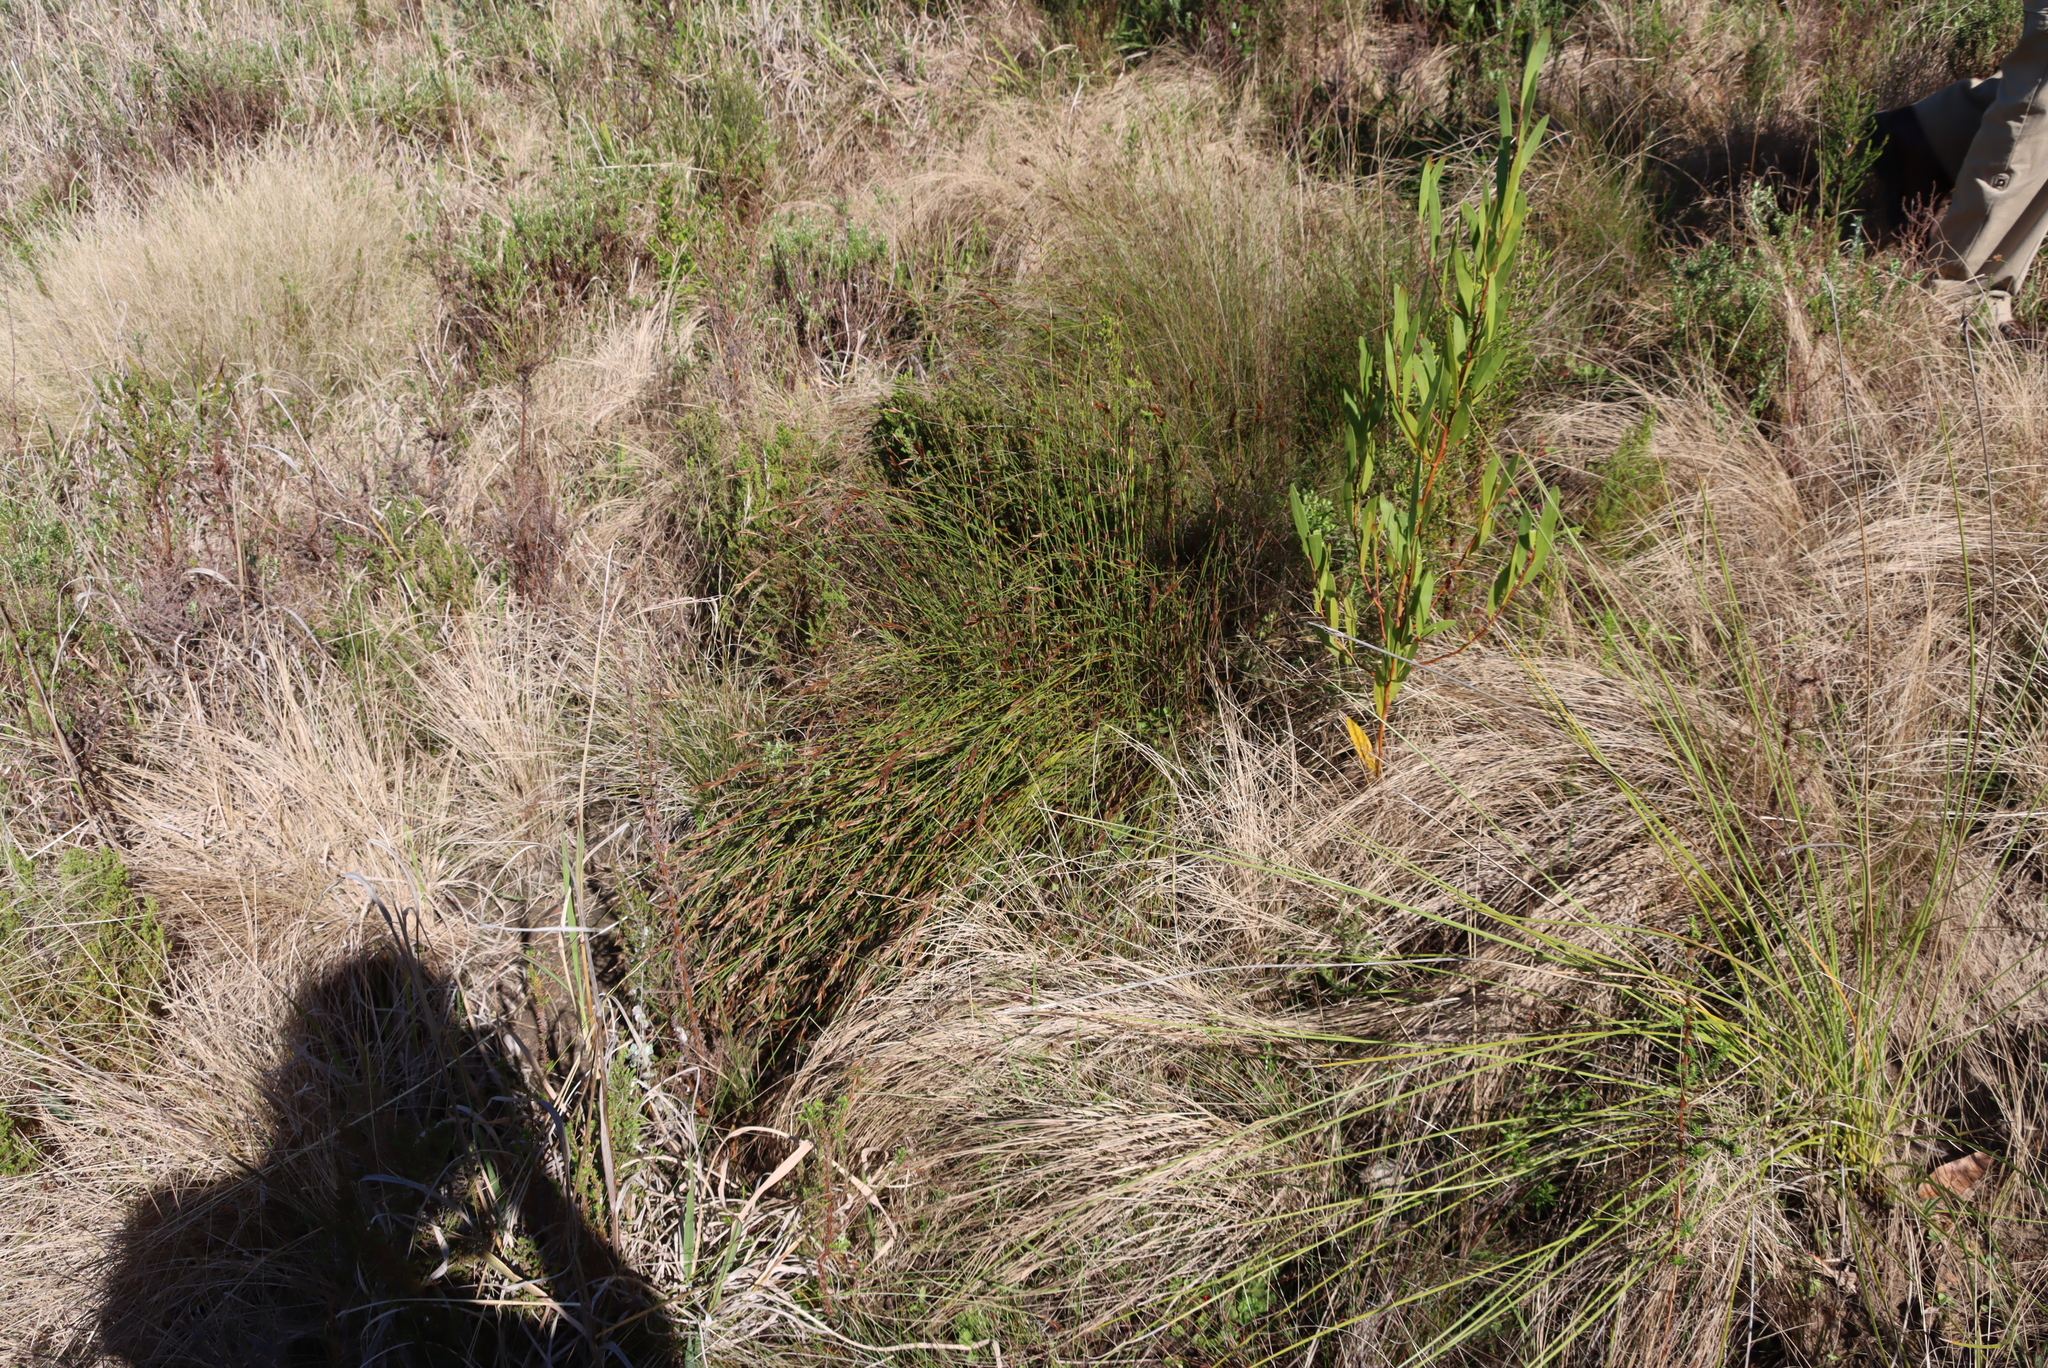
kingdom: Plantae
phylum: Tracheophyta
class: Magnoliopsida
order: Fabales
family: Fabaceae
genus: Acacia
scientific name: Acacia cyclops
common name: Coastal wattle
